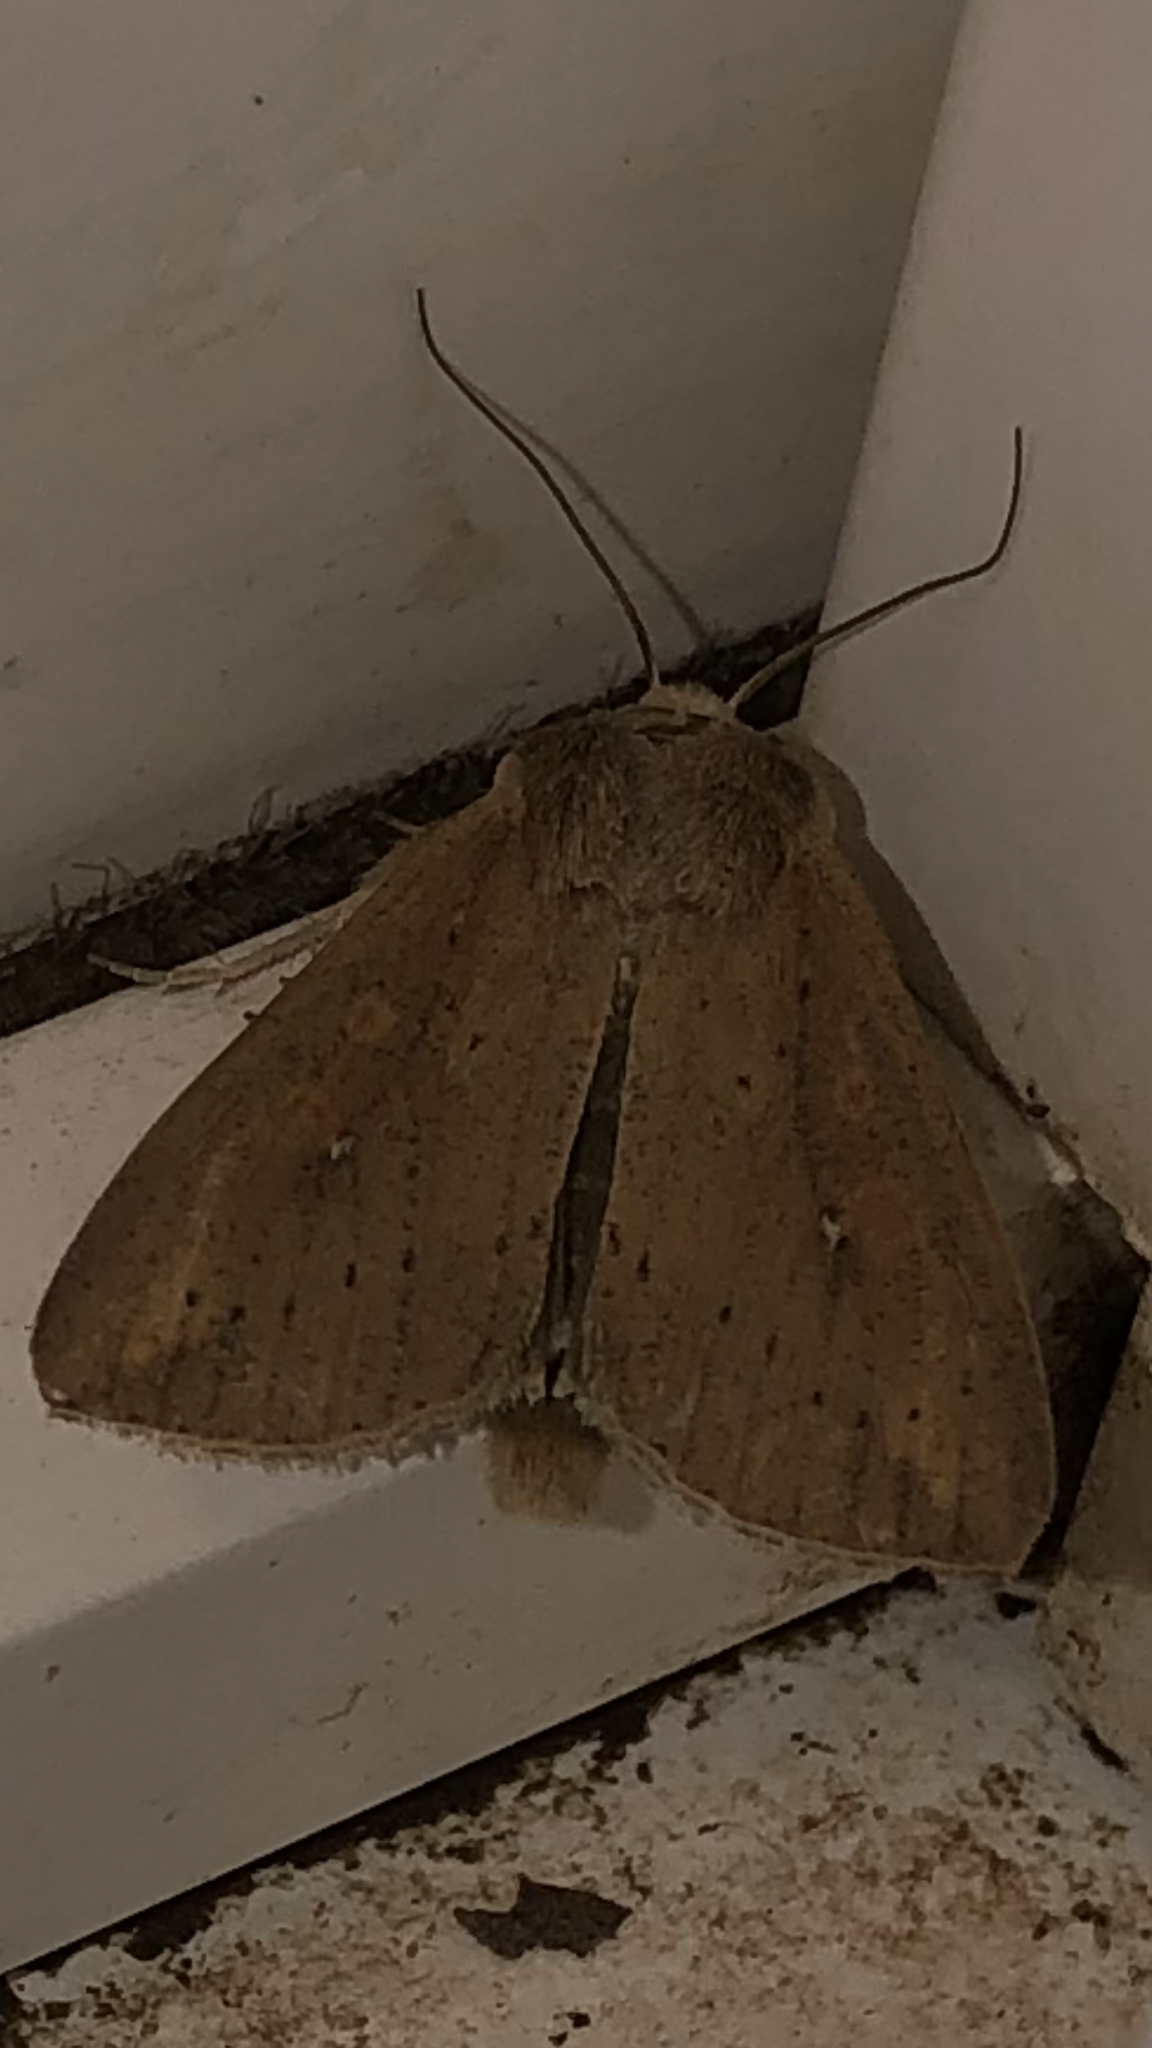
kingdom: Animalia
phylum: Arthropoda
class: Insecta
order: Lepidoptera
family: Noctuidae
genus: Mythimna
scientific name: Mythimna unipuncta
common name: White-speck
